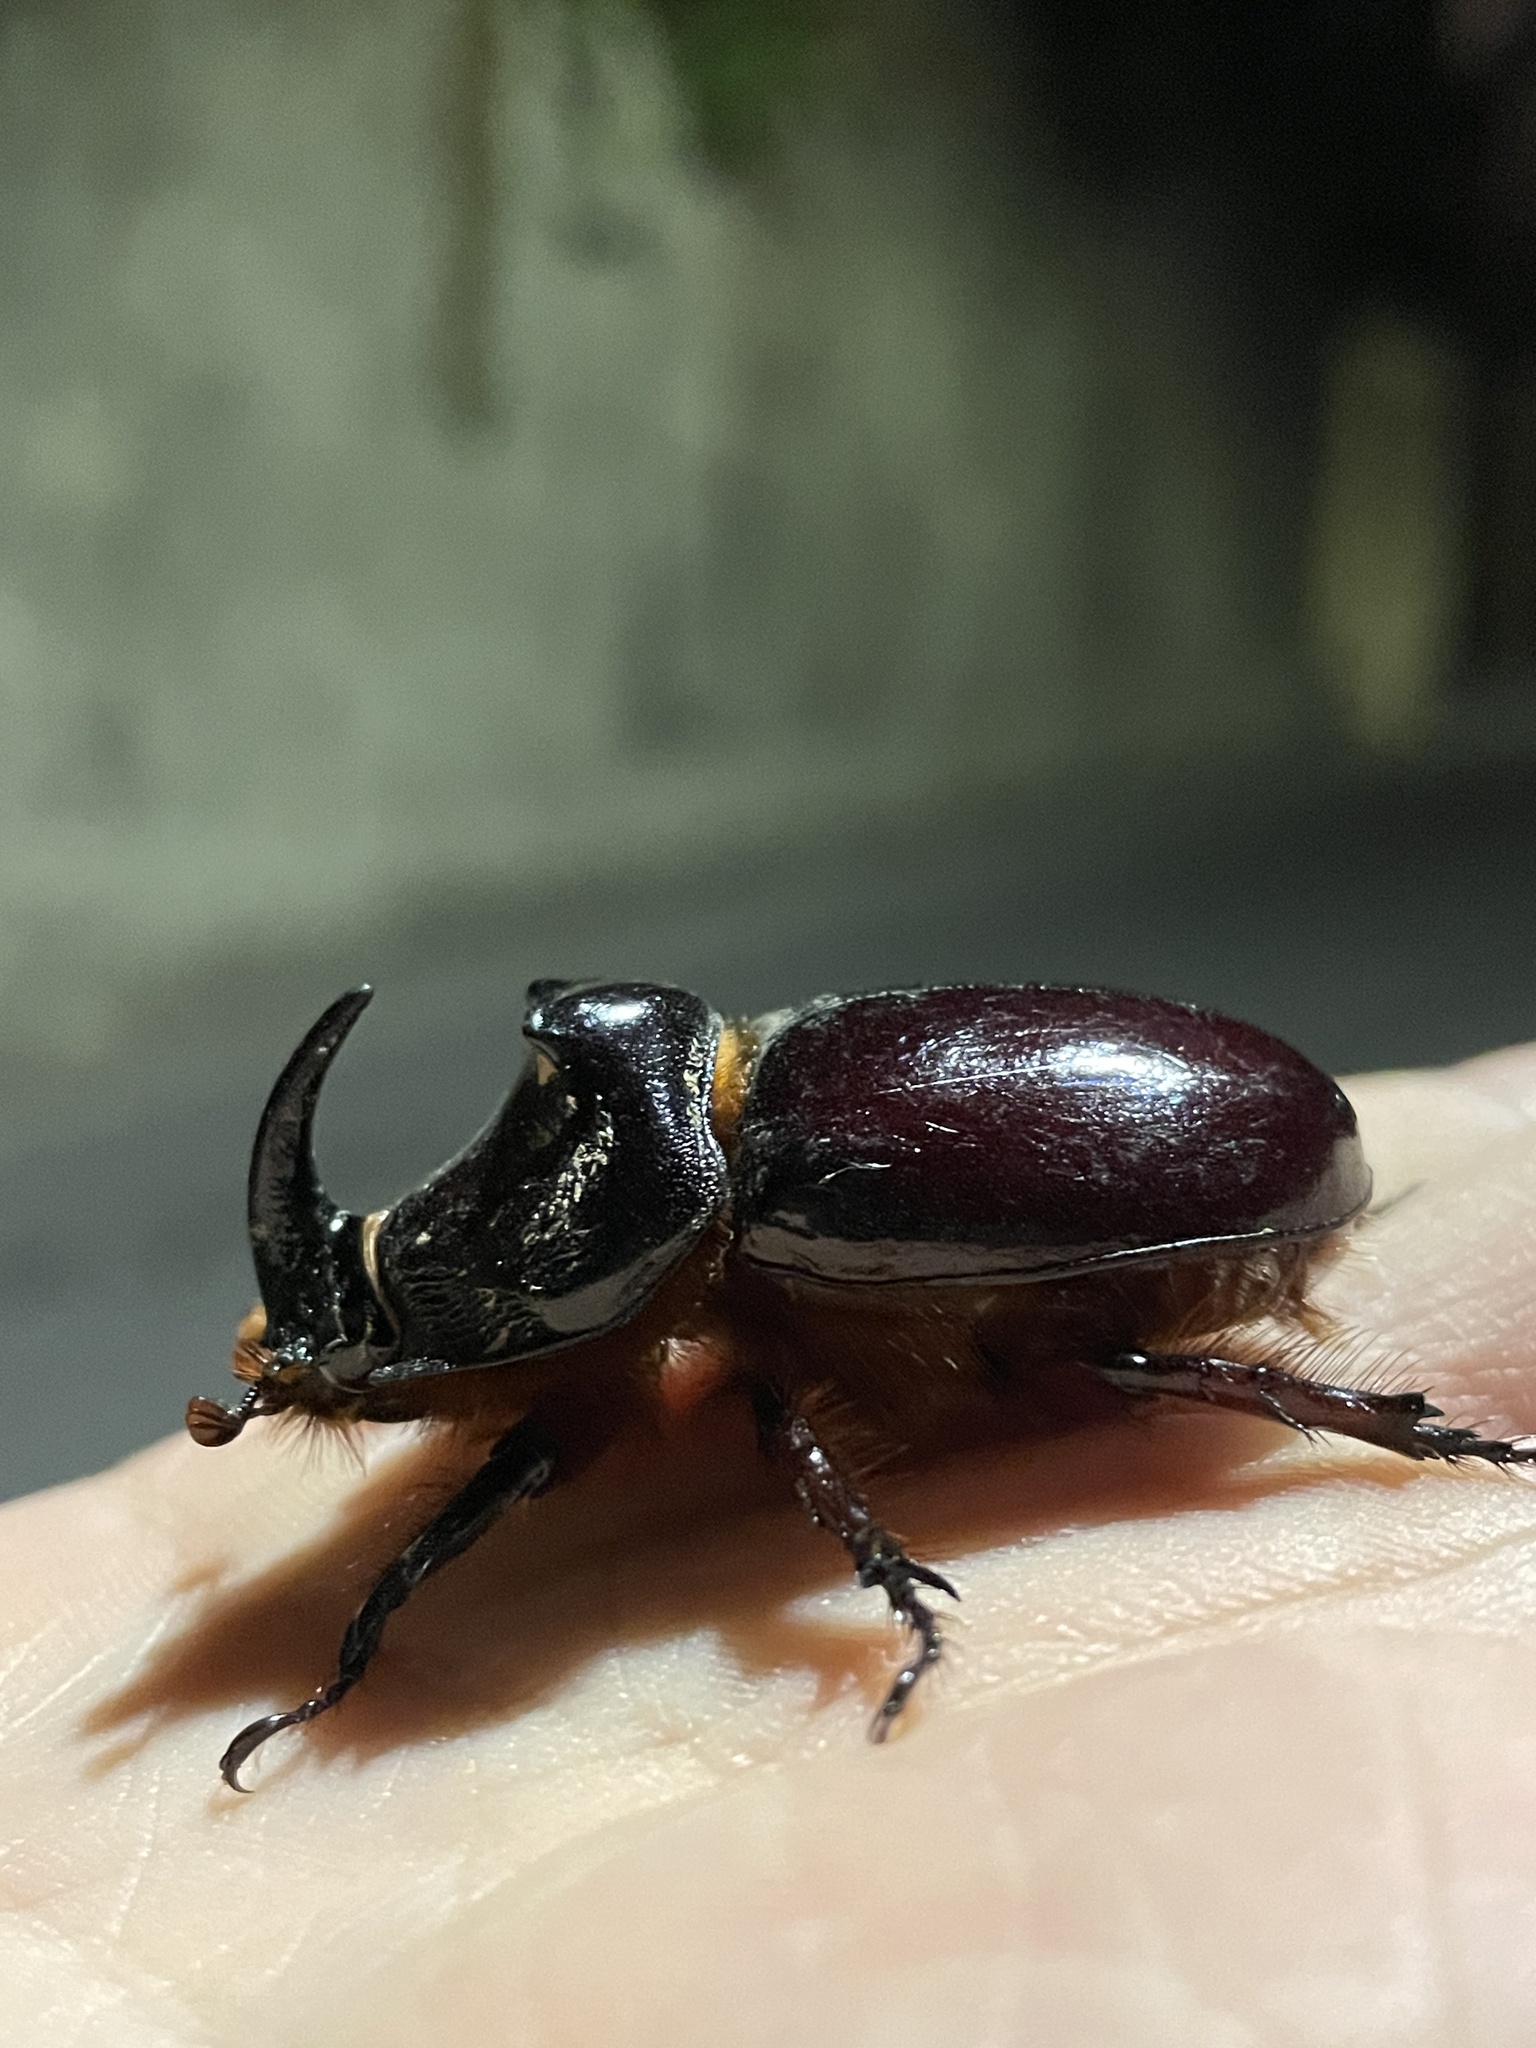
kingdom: Animalia
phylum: Arthropoda
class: Insecta
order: Coleoptera
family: Scarabaeidae
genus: Oryctes
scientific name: Oryctes nasicornis
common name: European rhinoceros beetle
